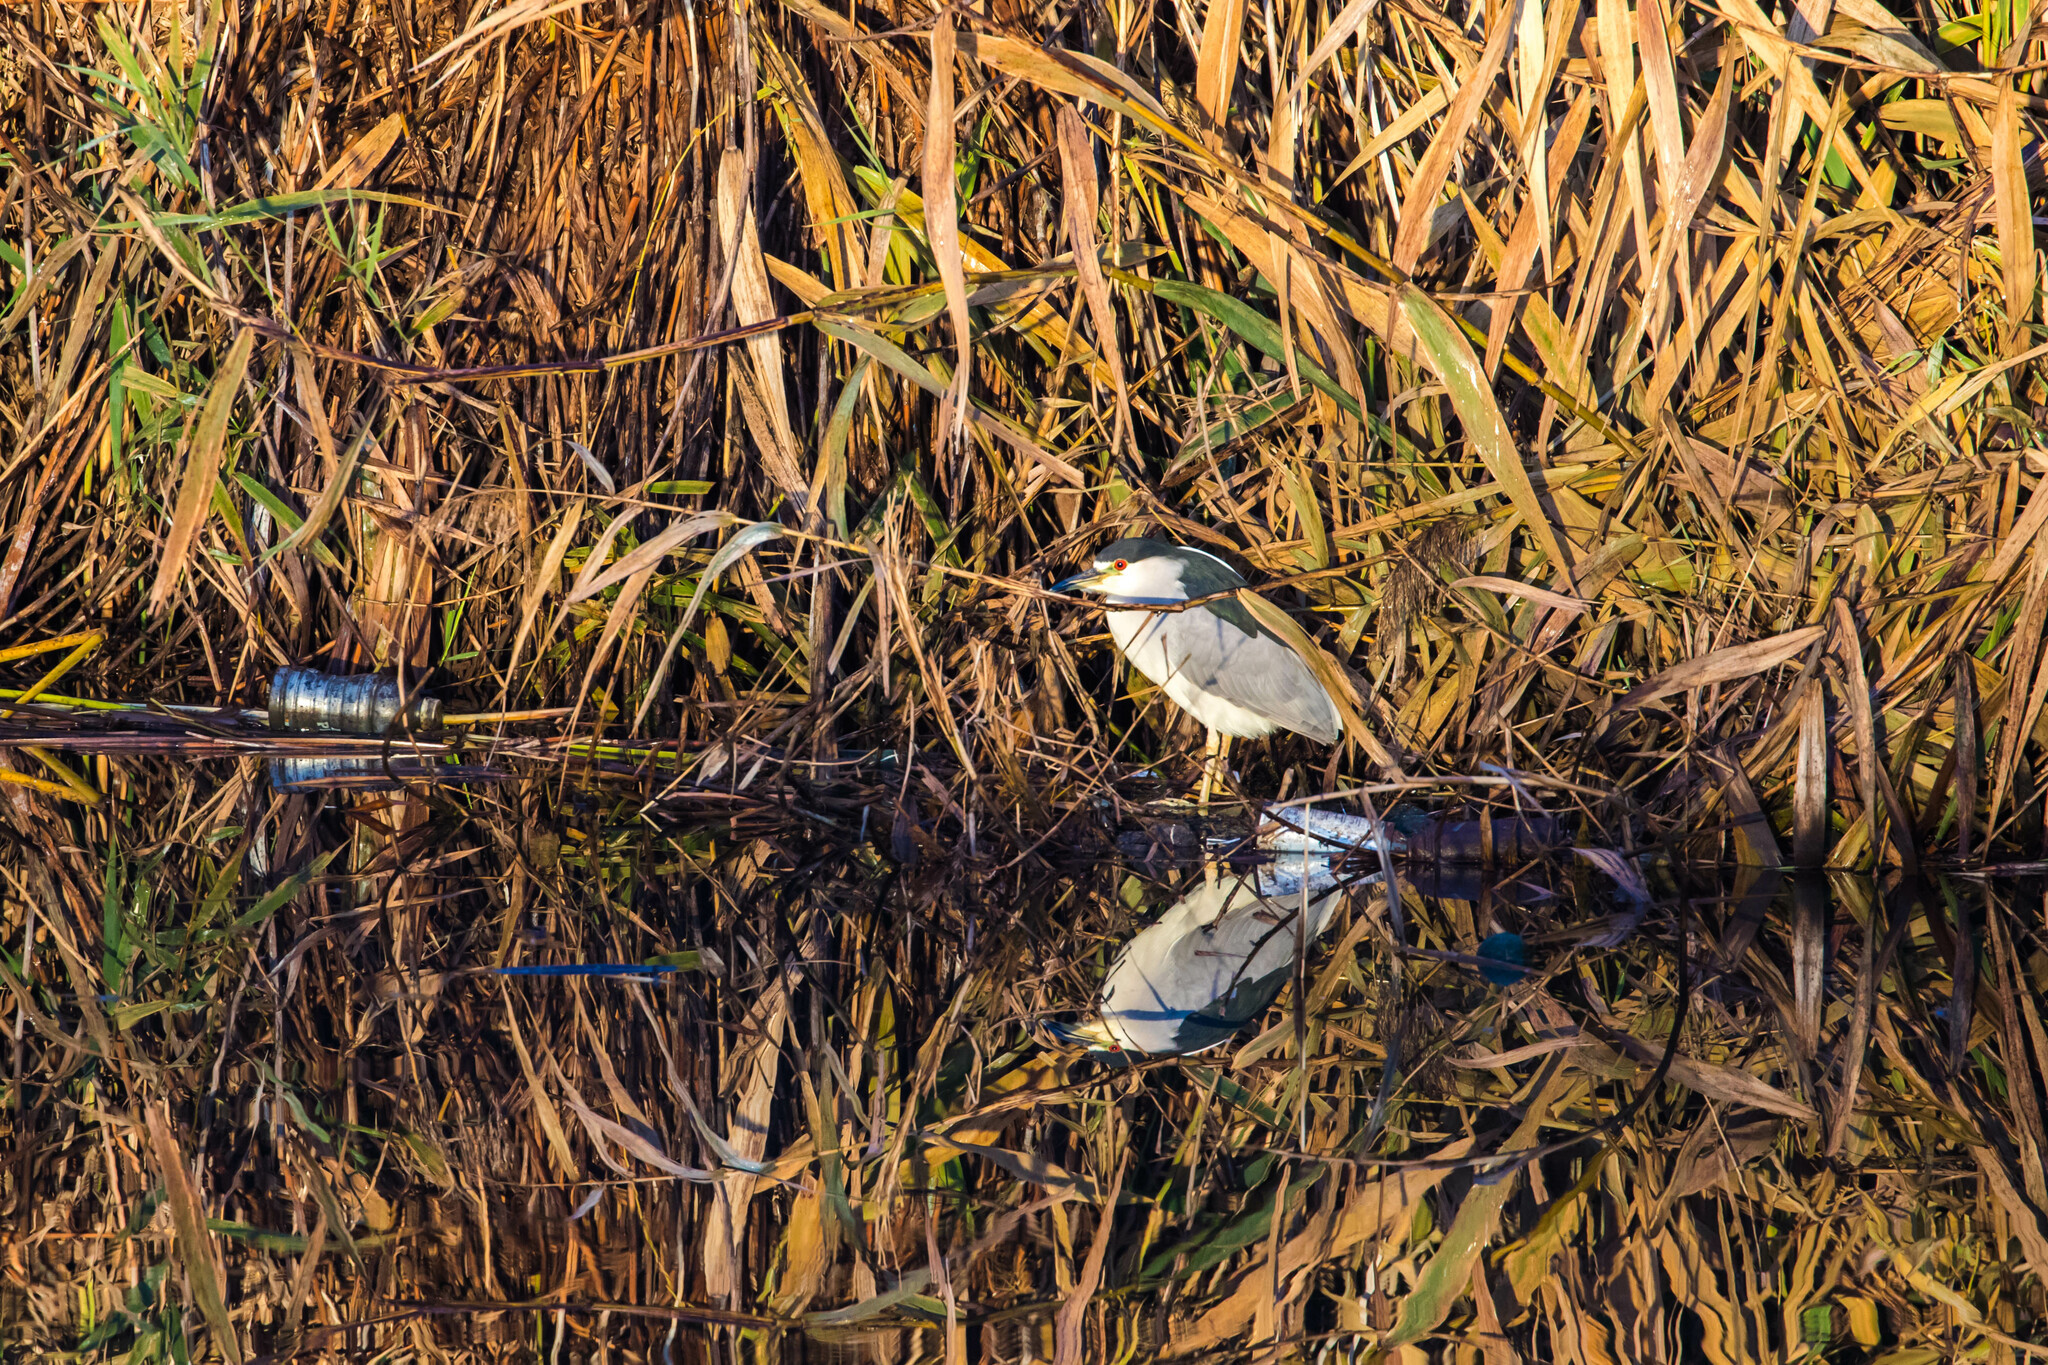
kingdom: Animalia
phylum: Chordata
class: Aves
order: Pelecaniformes
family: Ardeidae
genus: Nycticorax
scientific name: Nycticorax nycticorax
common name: Black-crowned night heron
